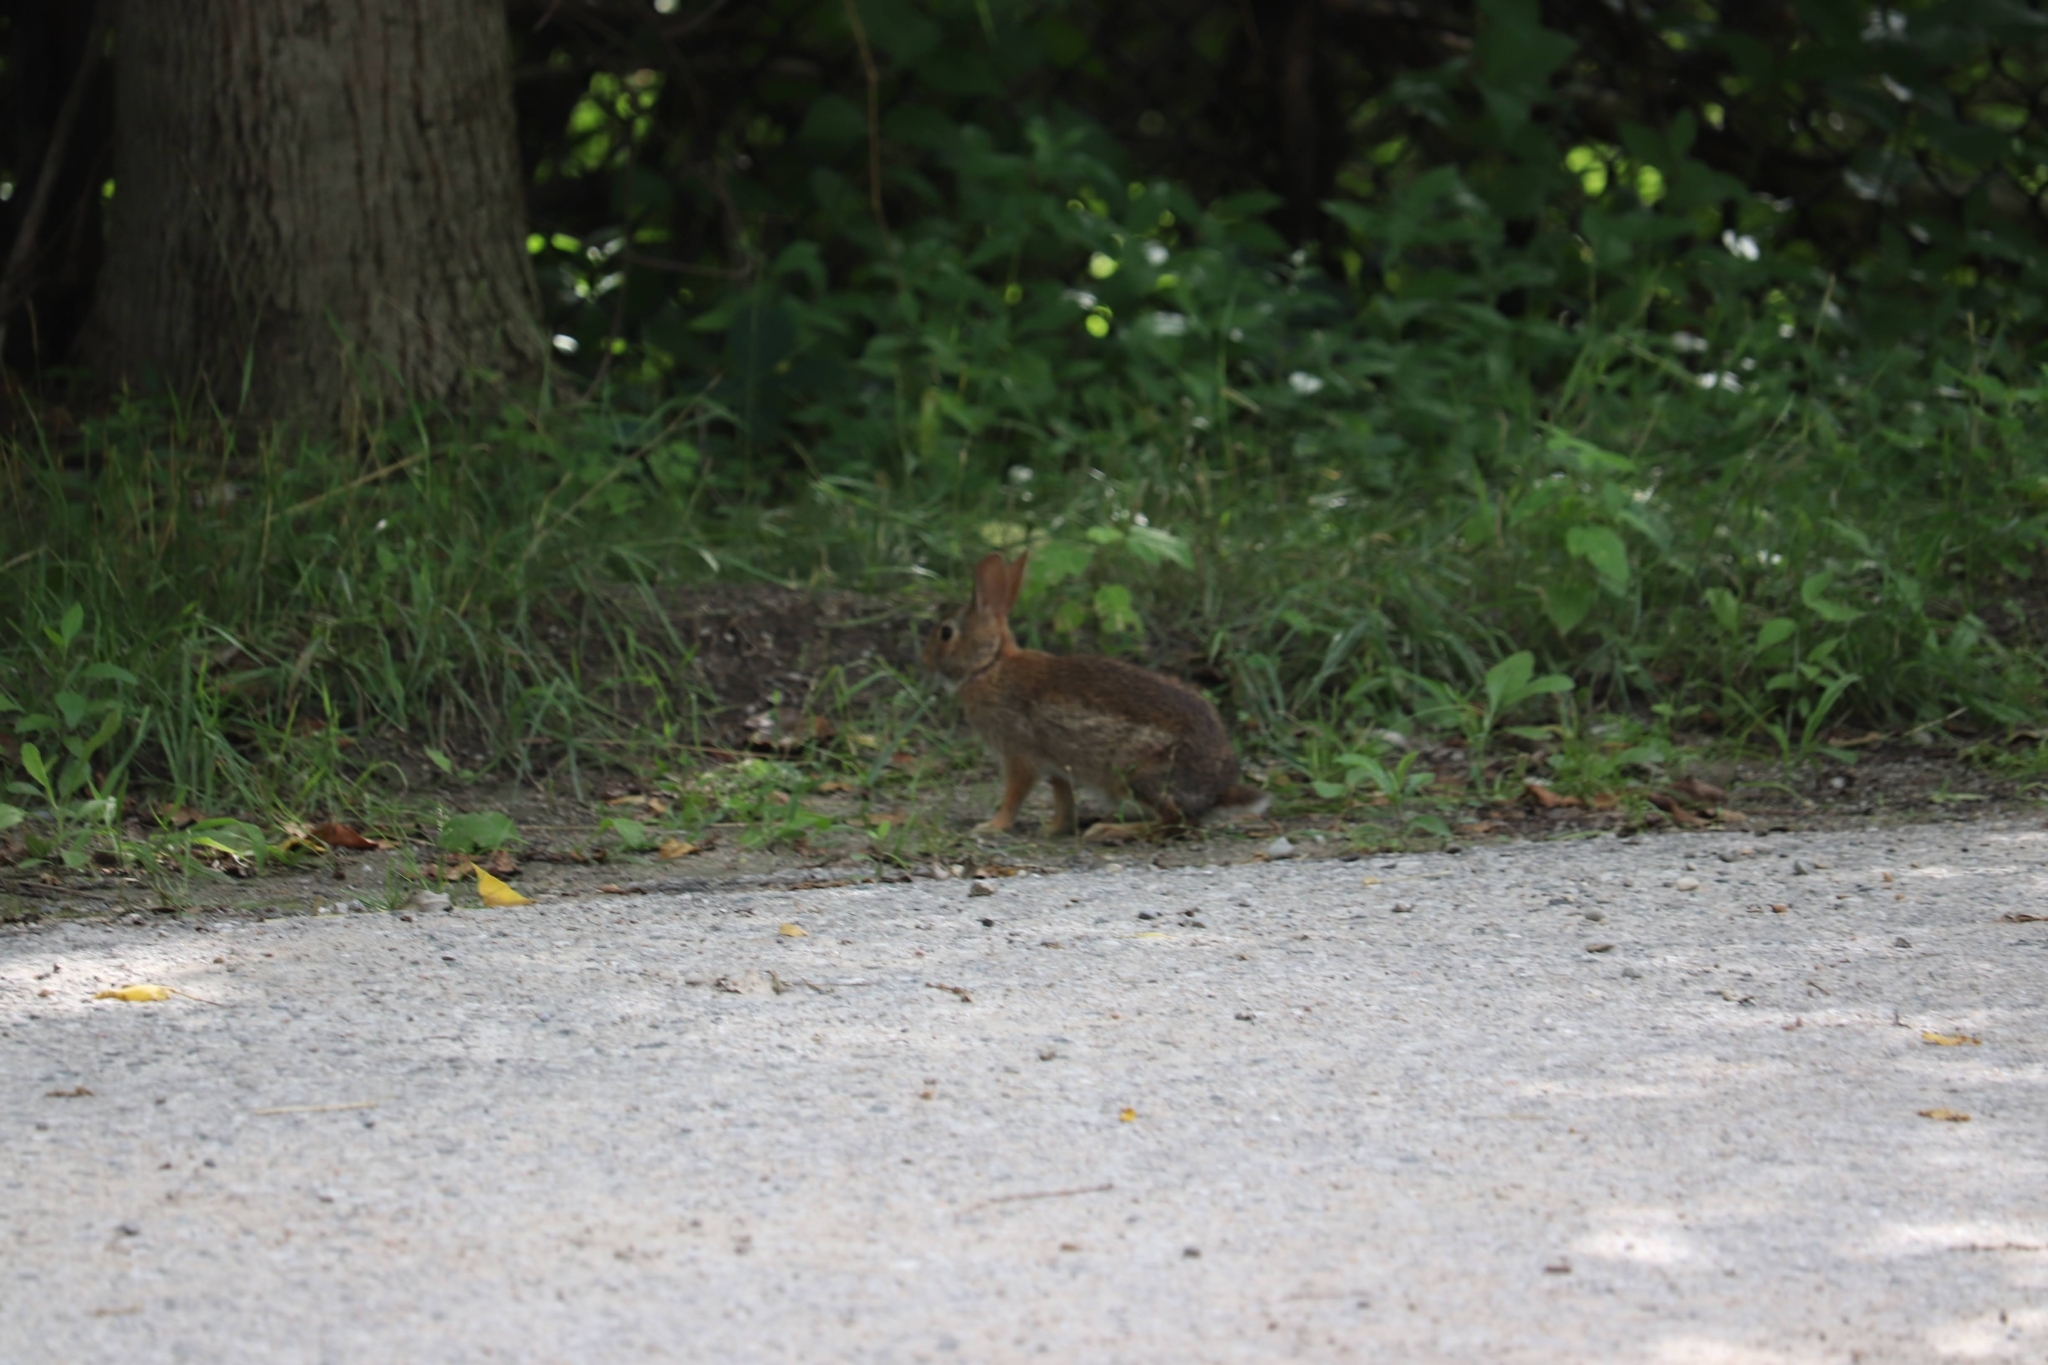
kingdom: Animalia
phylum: Chordata
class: Mammalia
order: Lagomorpha
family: Leporidae
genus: Sylvilagus
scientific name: Sylvilagus floridanus
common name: Eastern cottontail
